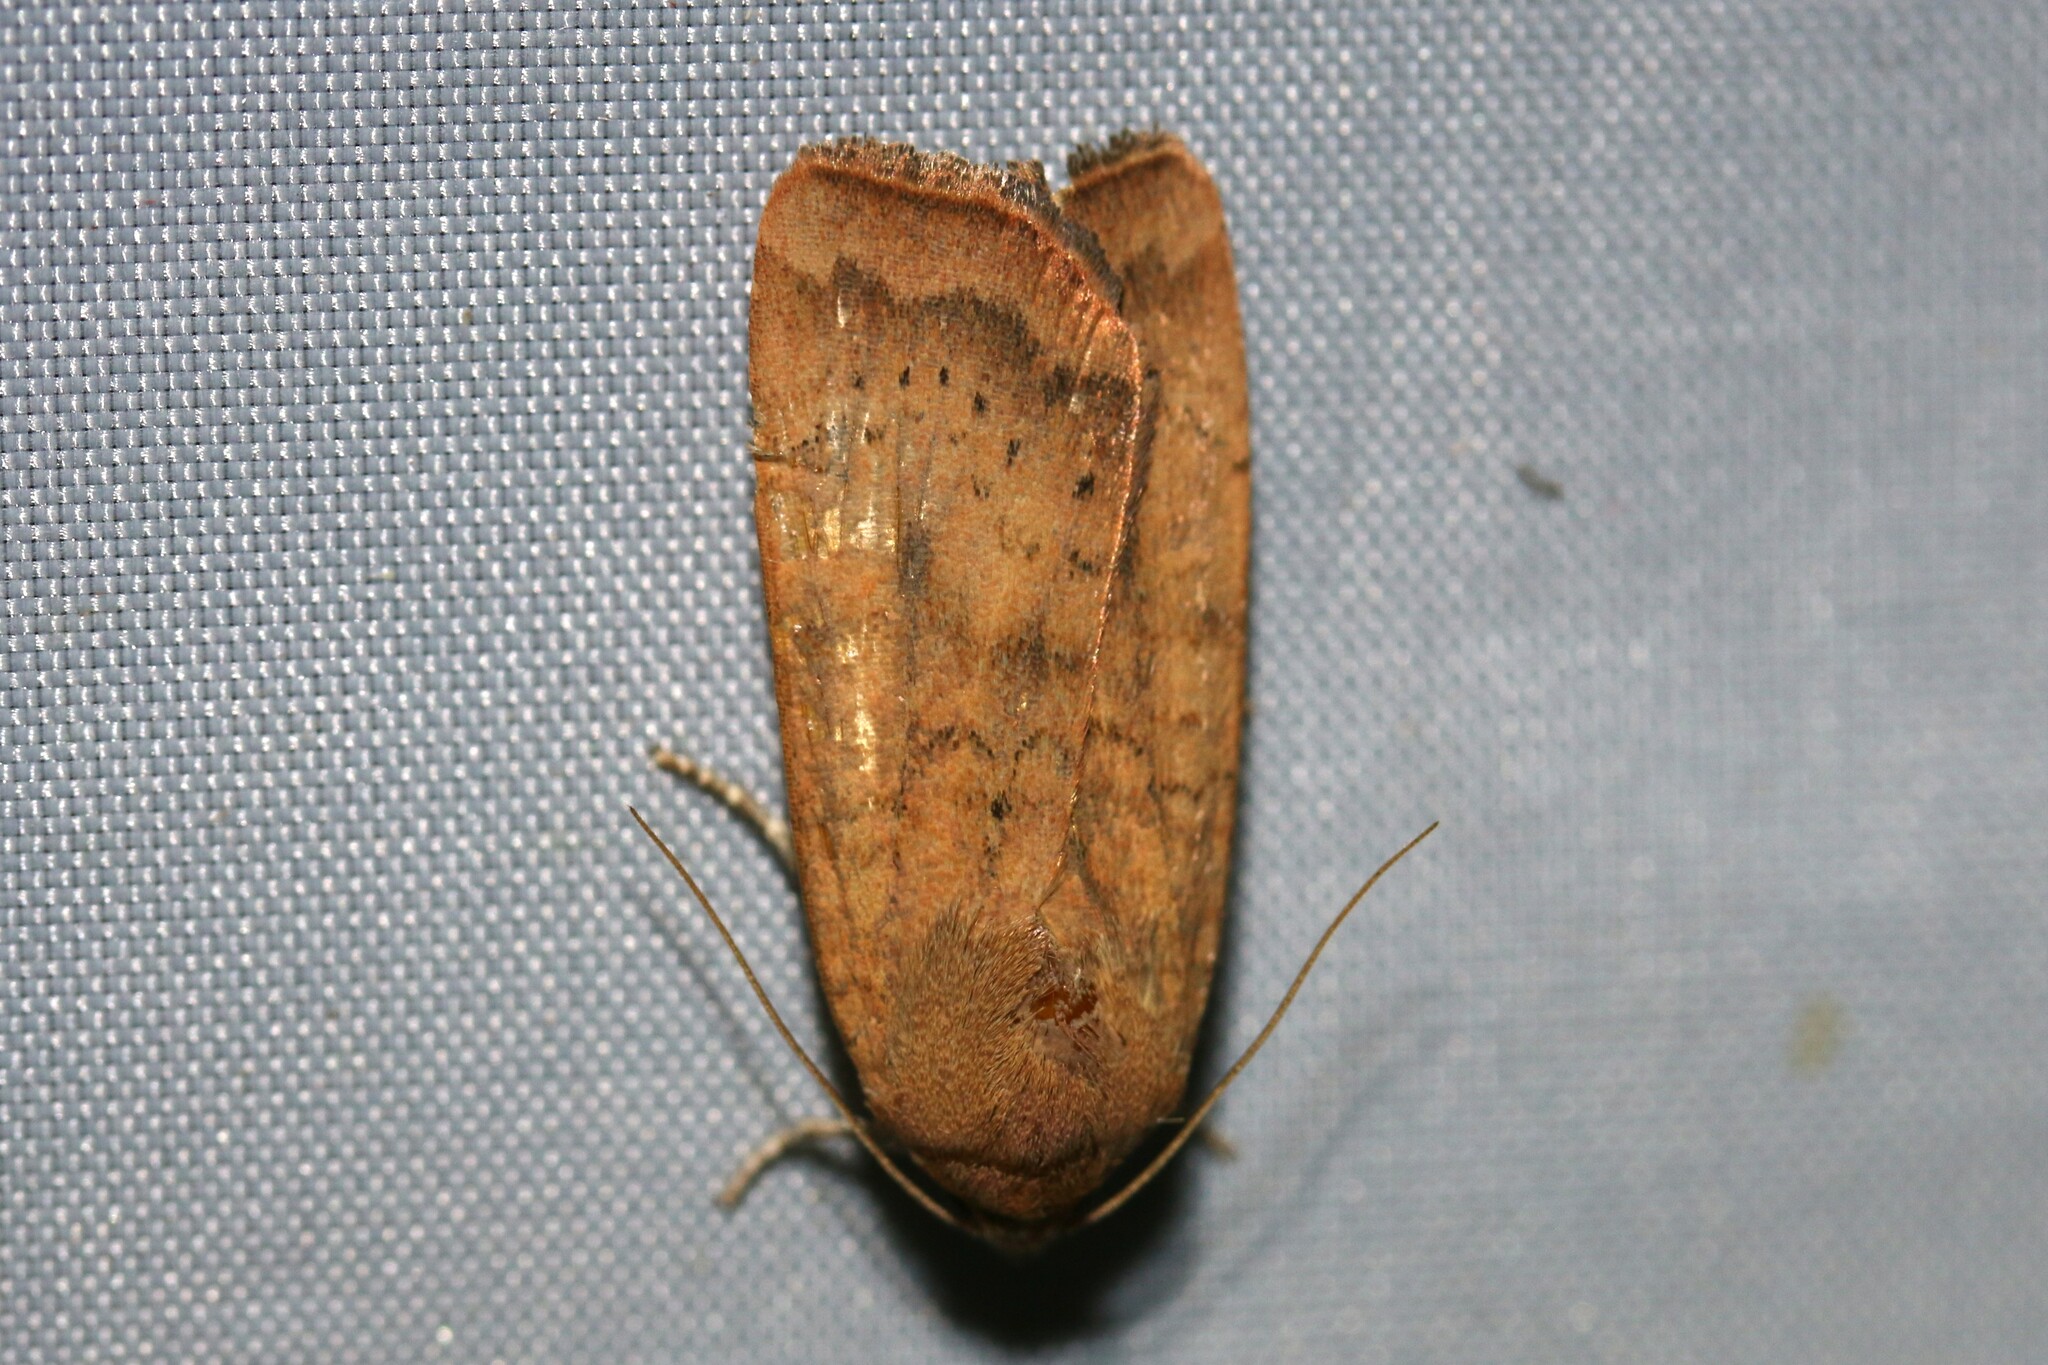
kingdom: Animalia
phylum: Arthropoda
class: Insecta
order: Lepidoptera
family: Noctuidae
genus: Noctua
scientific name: Noctua interjecta
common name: Least yellow underwing
